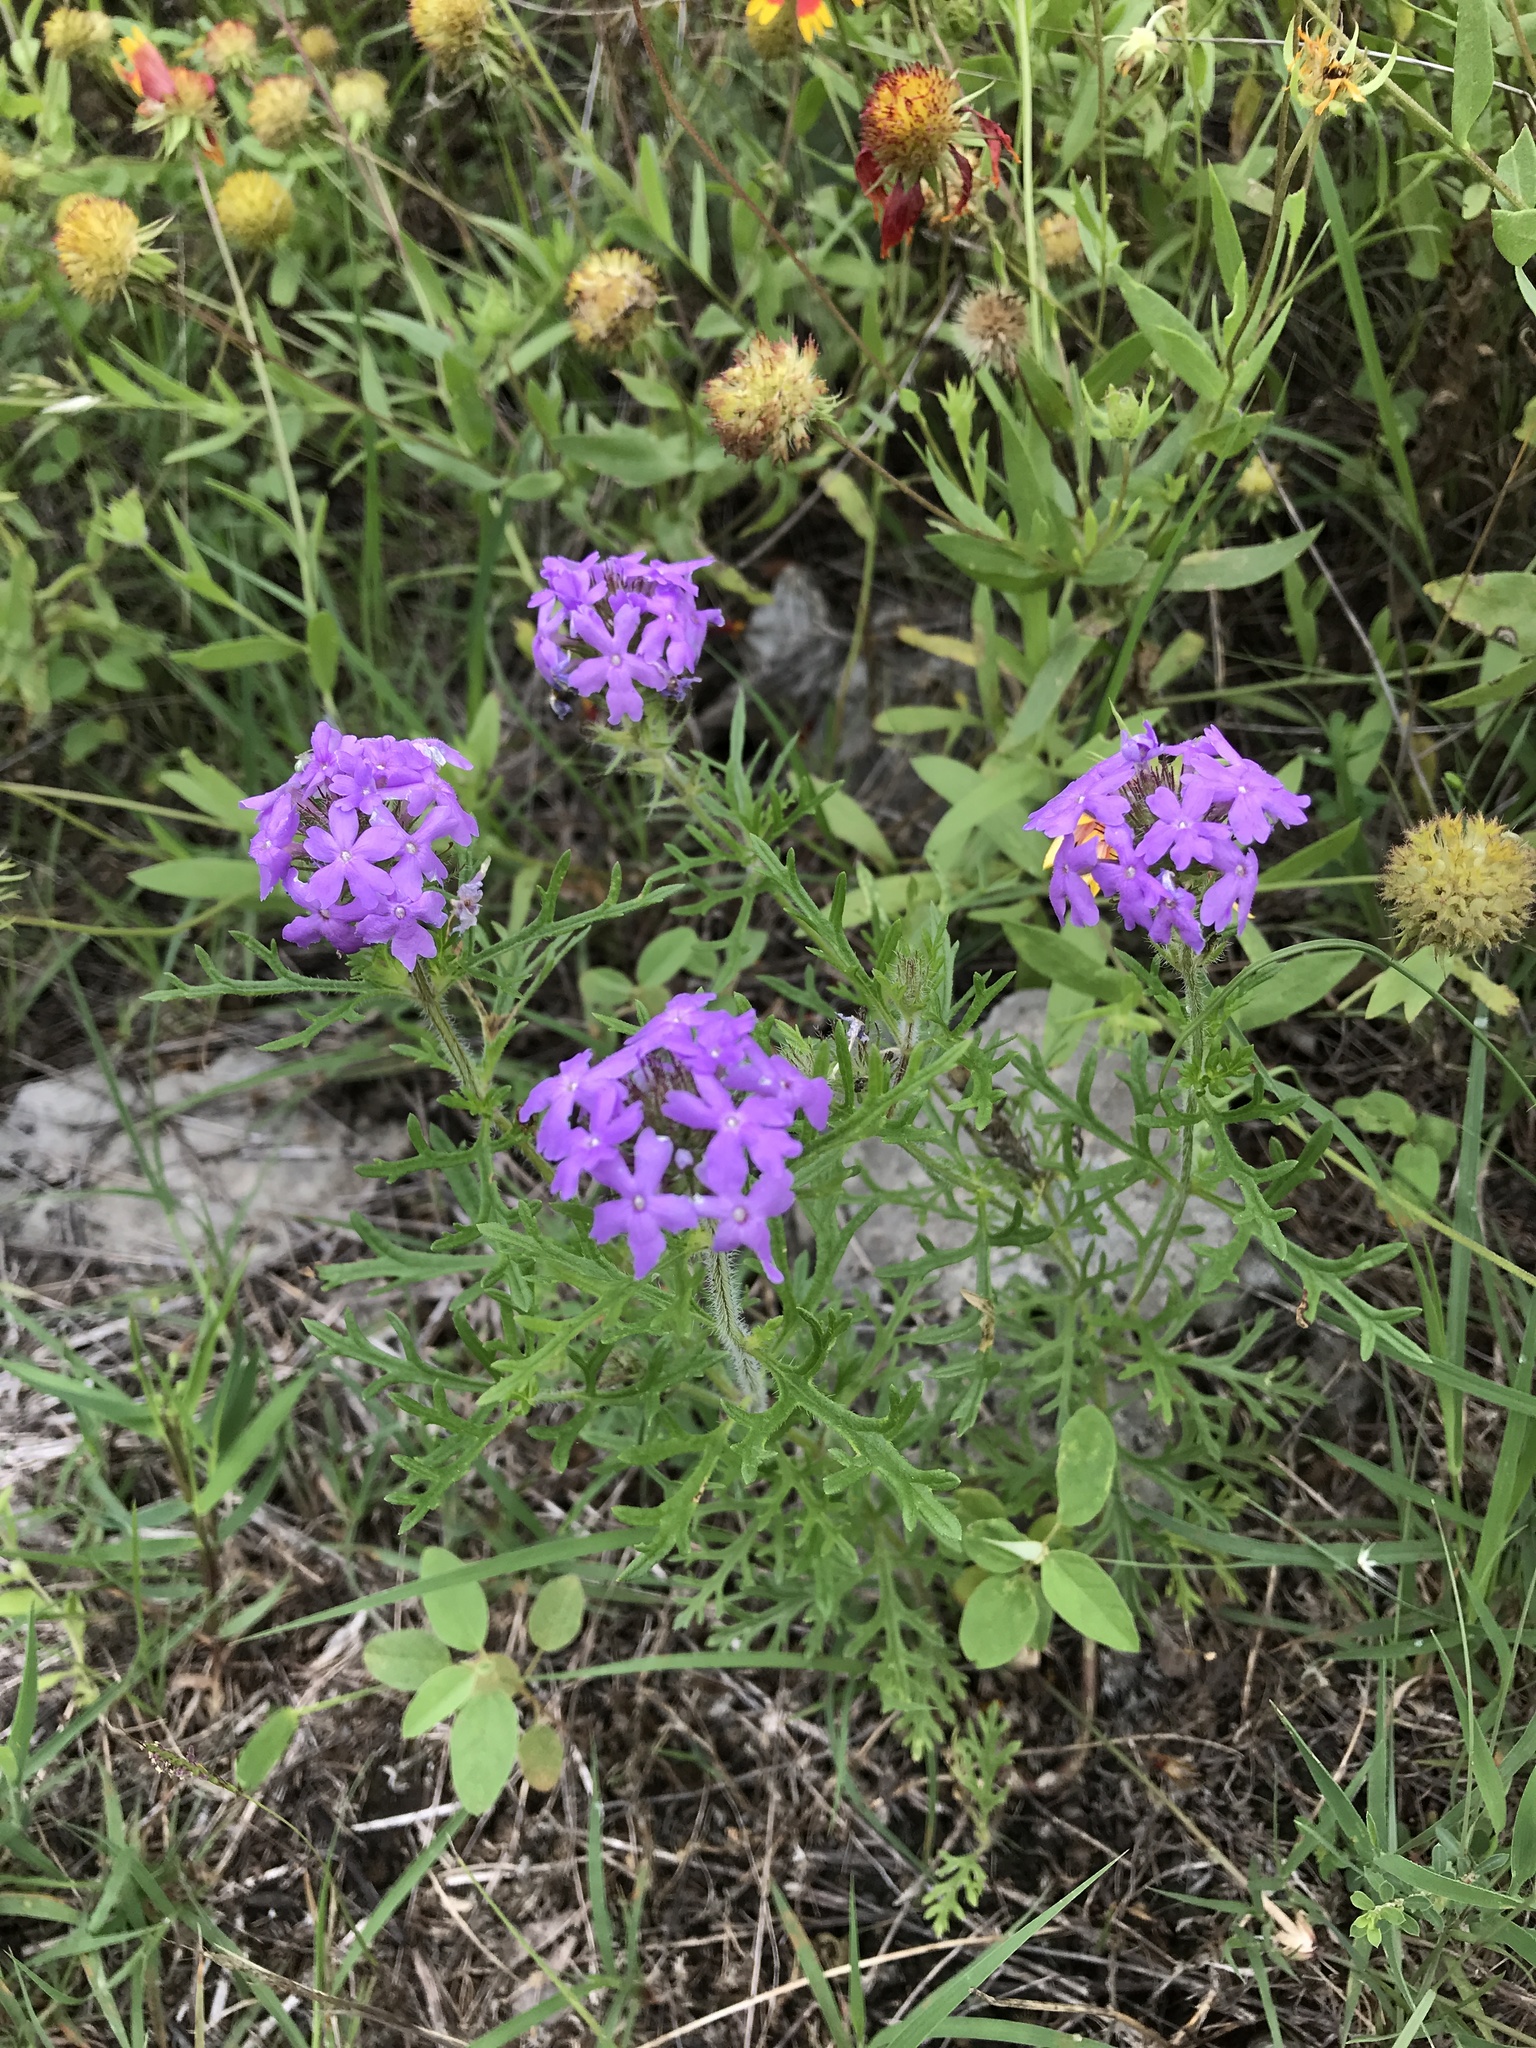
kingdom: Plantae
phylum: Tracheophyta
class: Magnoliopsida
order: Lamiales
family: Verbenaceae
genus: Verbena
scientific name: Verbena bipinnatifida
